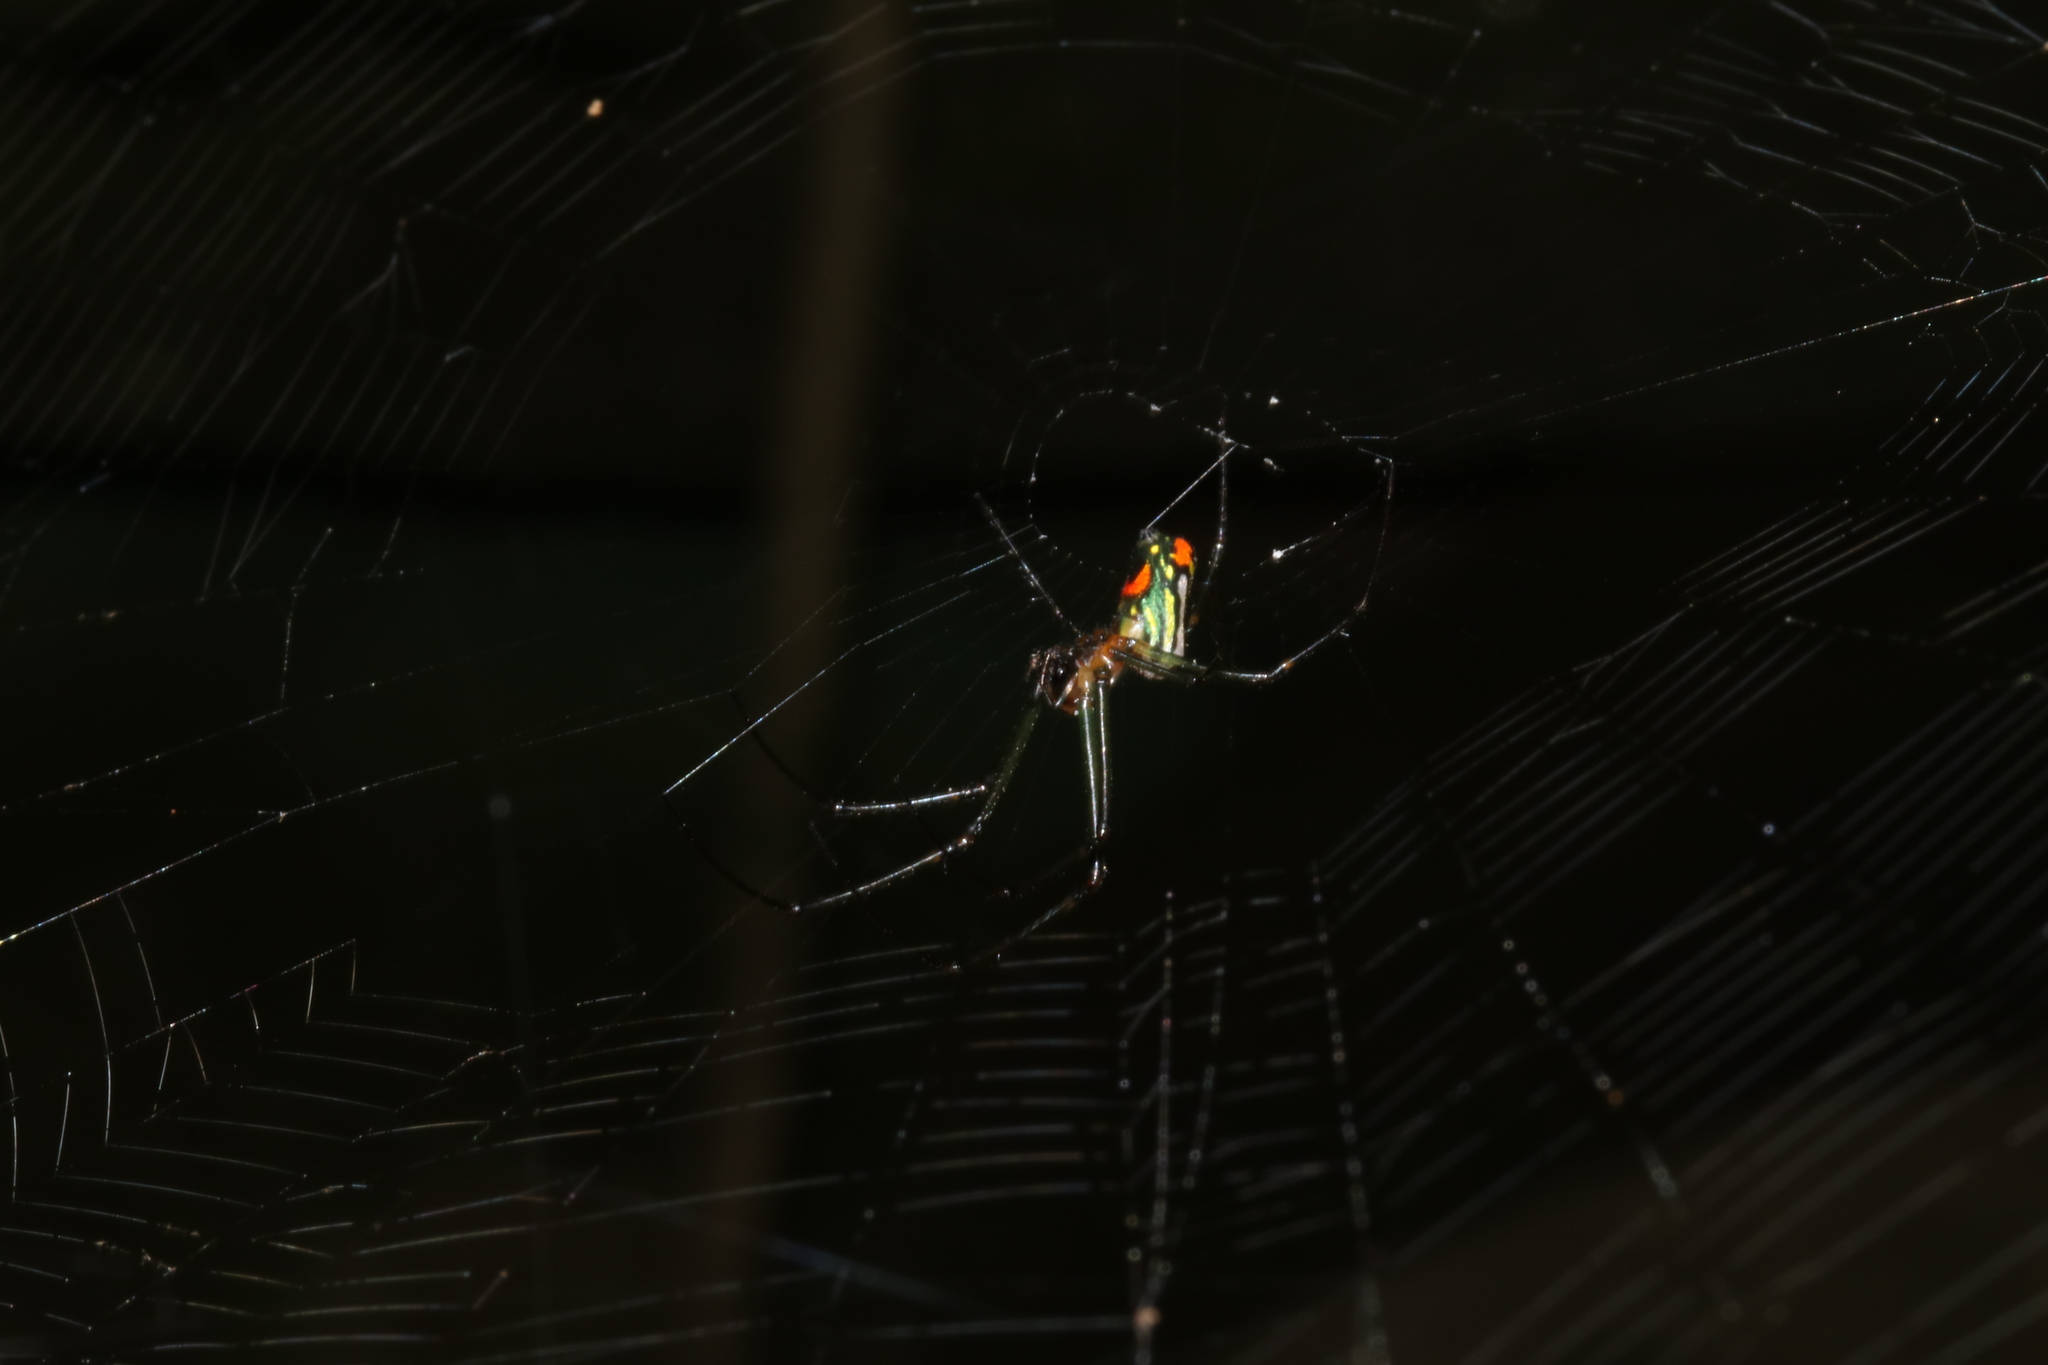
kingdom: Animalia
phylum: Arthropoda
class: Arachnida
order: Araneae
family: Tetragnathidae
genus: Leucauge
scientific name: Leucauge mariana
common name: Longjawed orb weavers
